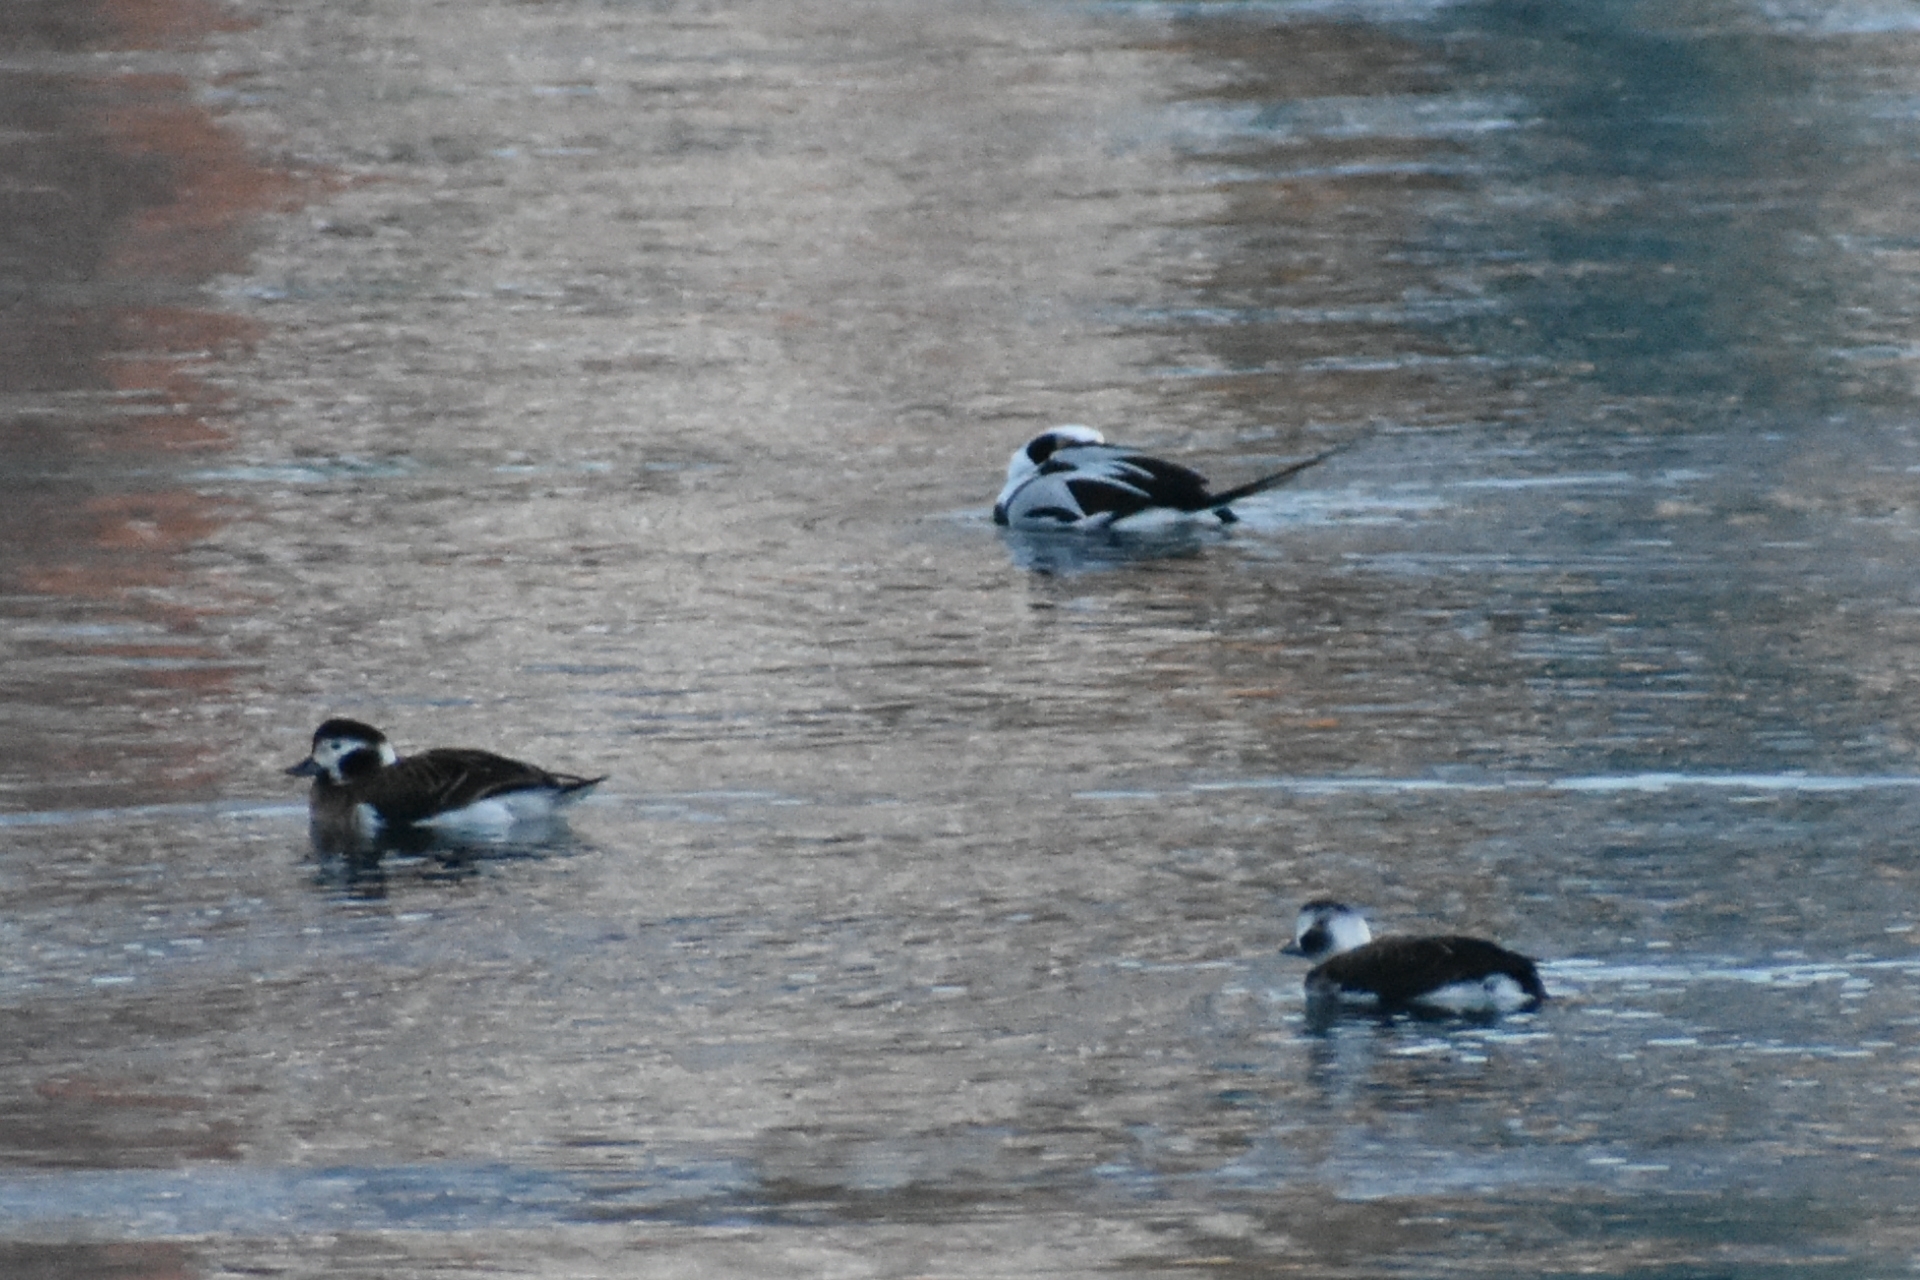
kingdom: Animalia
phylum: Chordata
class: Aves
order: Anseriformes
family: Anatidae
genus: Clangula
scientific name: Clangula hyemalis
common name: Long-tailed duck
